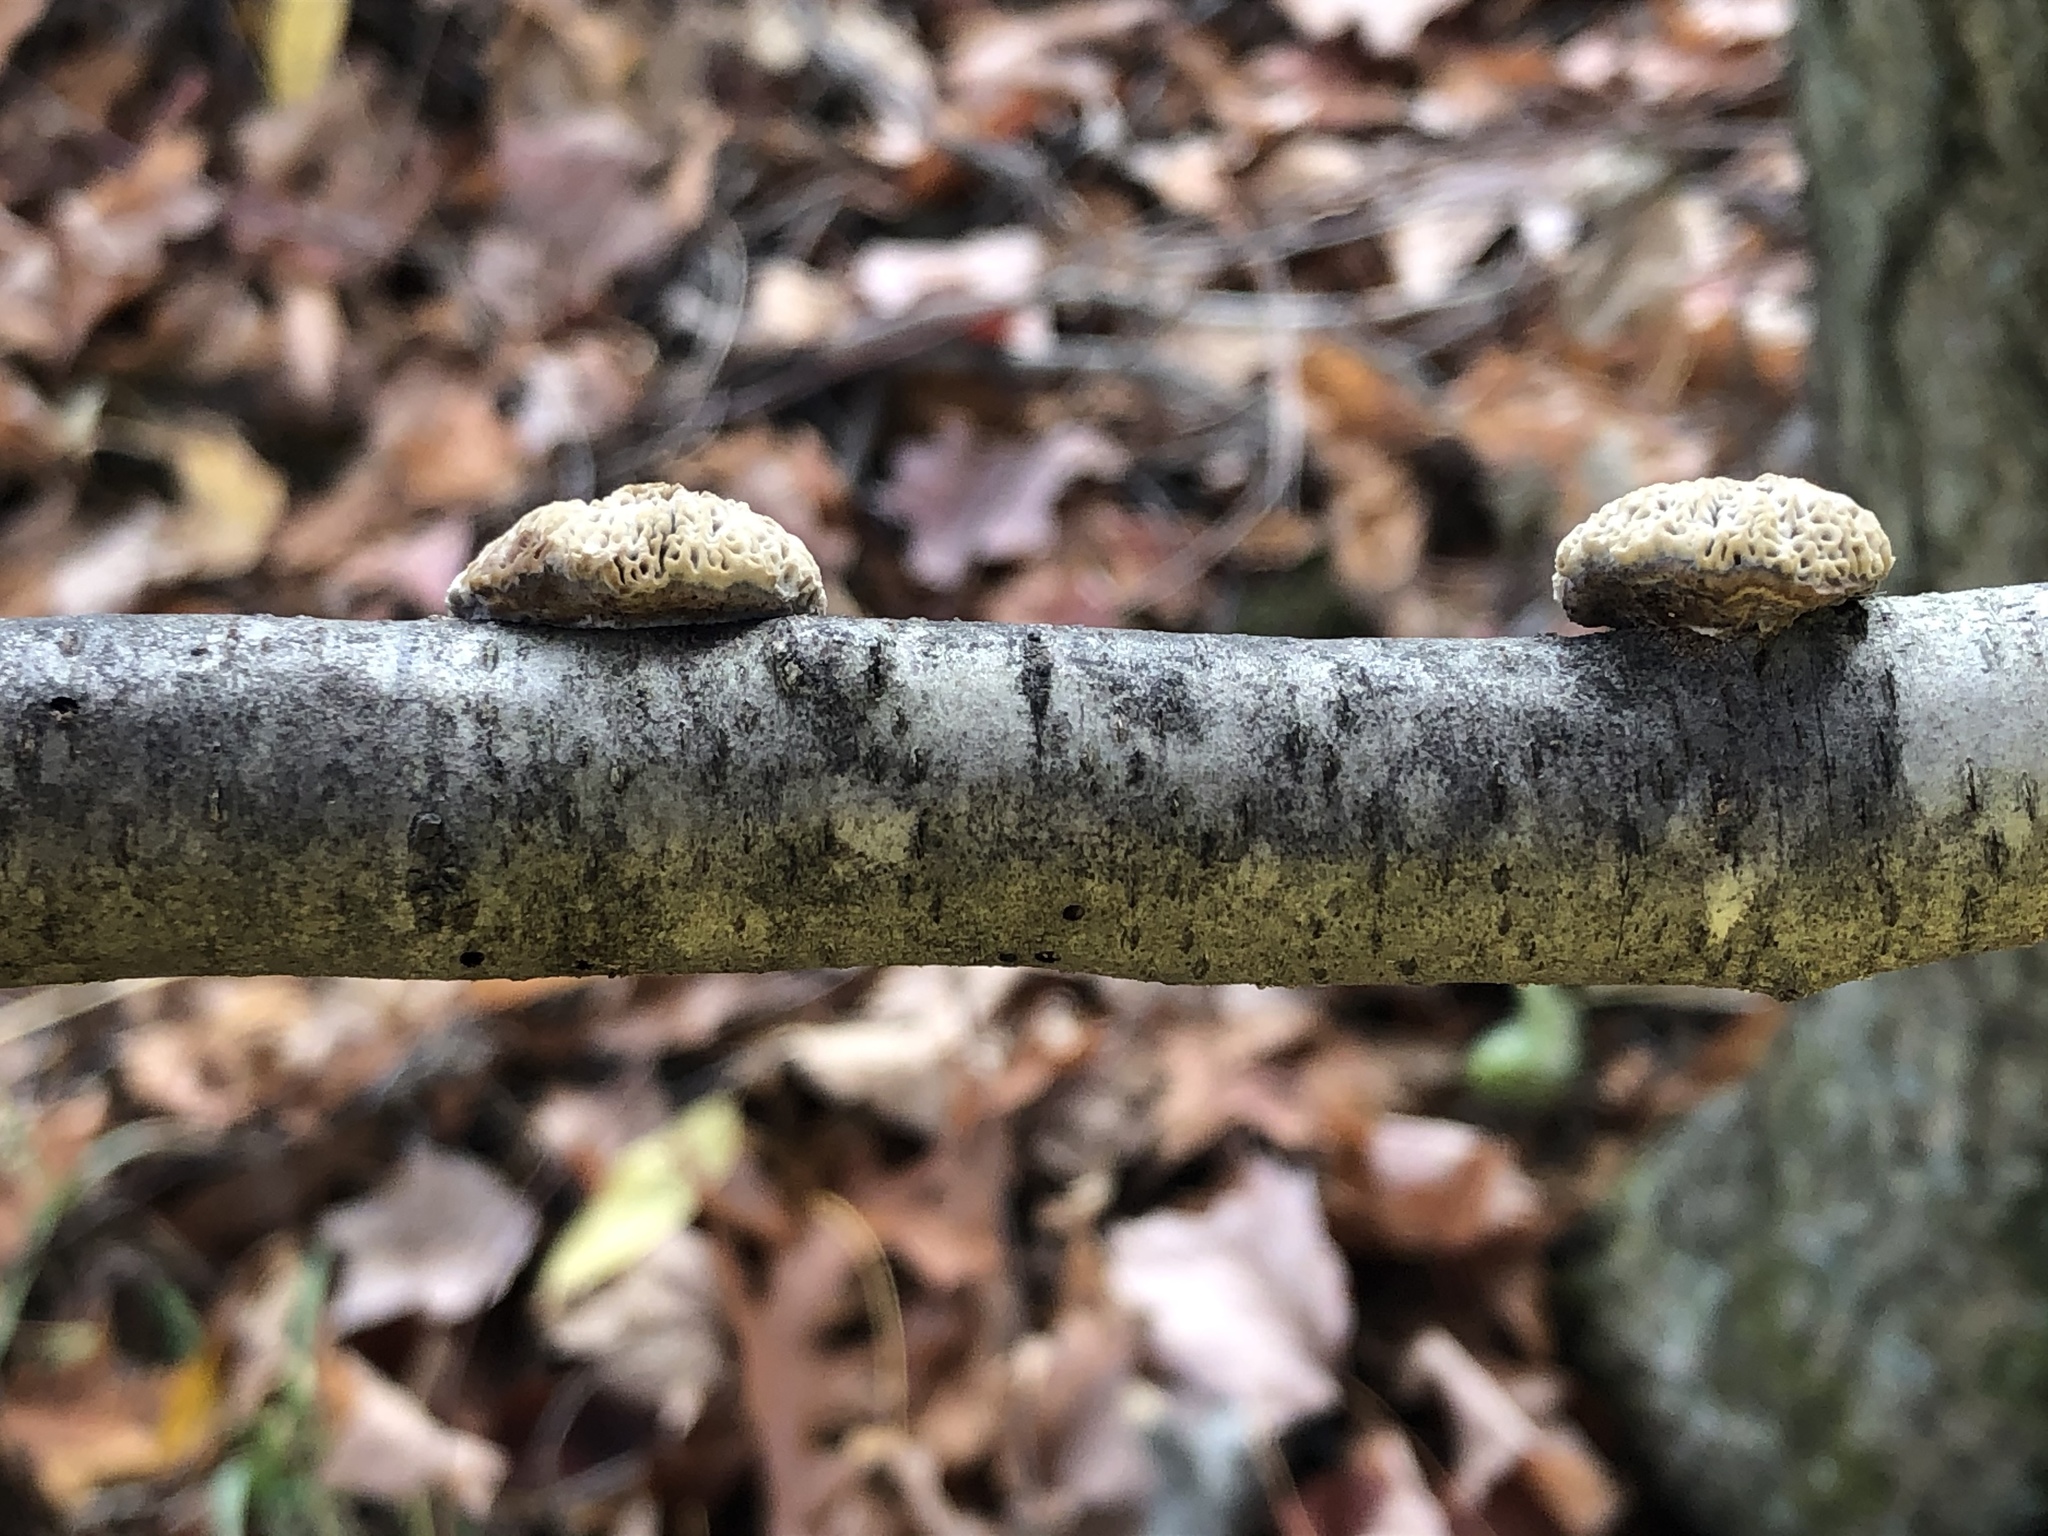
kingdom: Fungi
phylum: Basidiomycota
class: Agaricomycetes
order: Polyporales
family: Fomitopsidaceae
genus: Fomitopsis
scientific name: Fomitopsis
